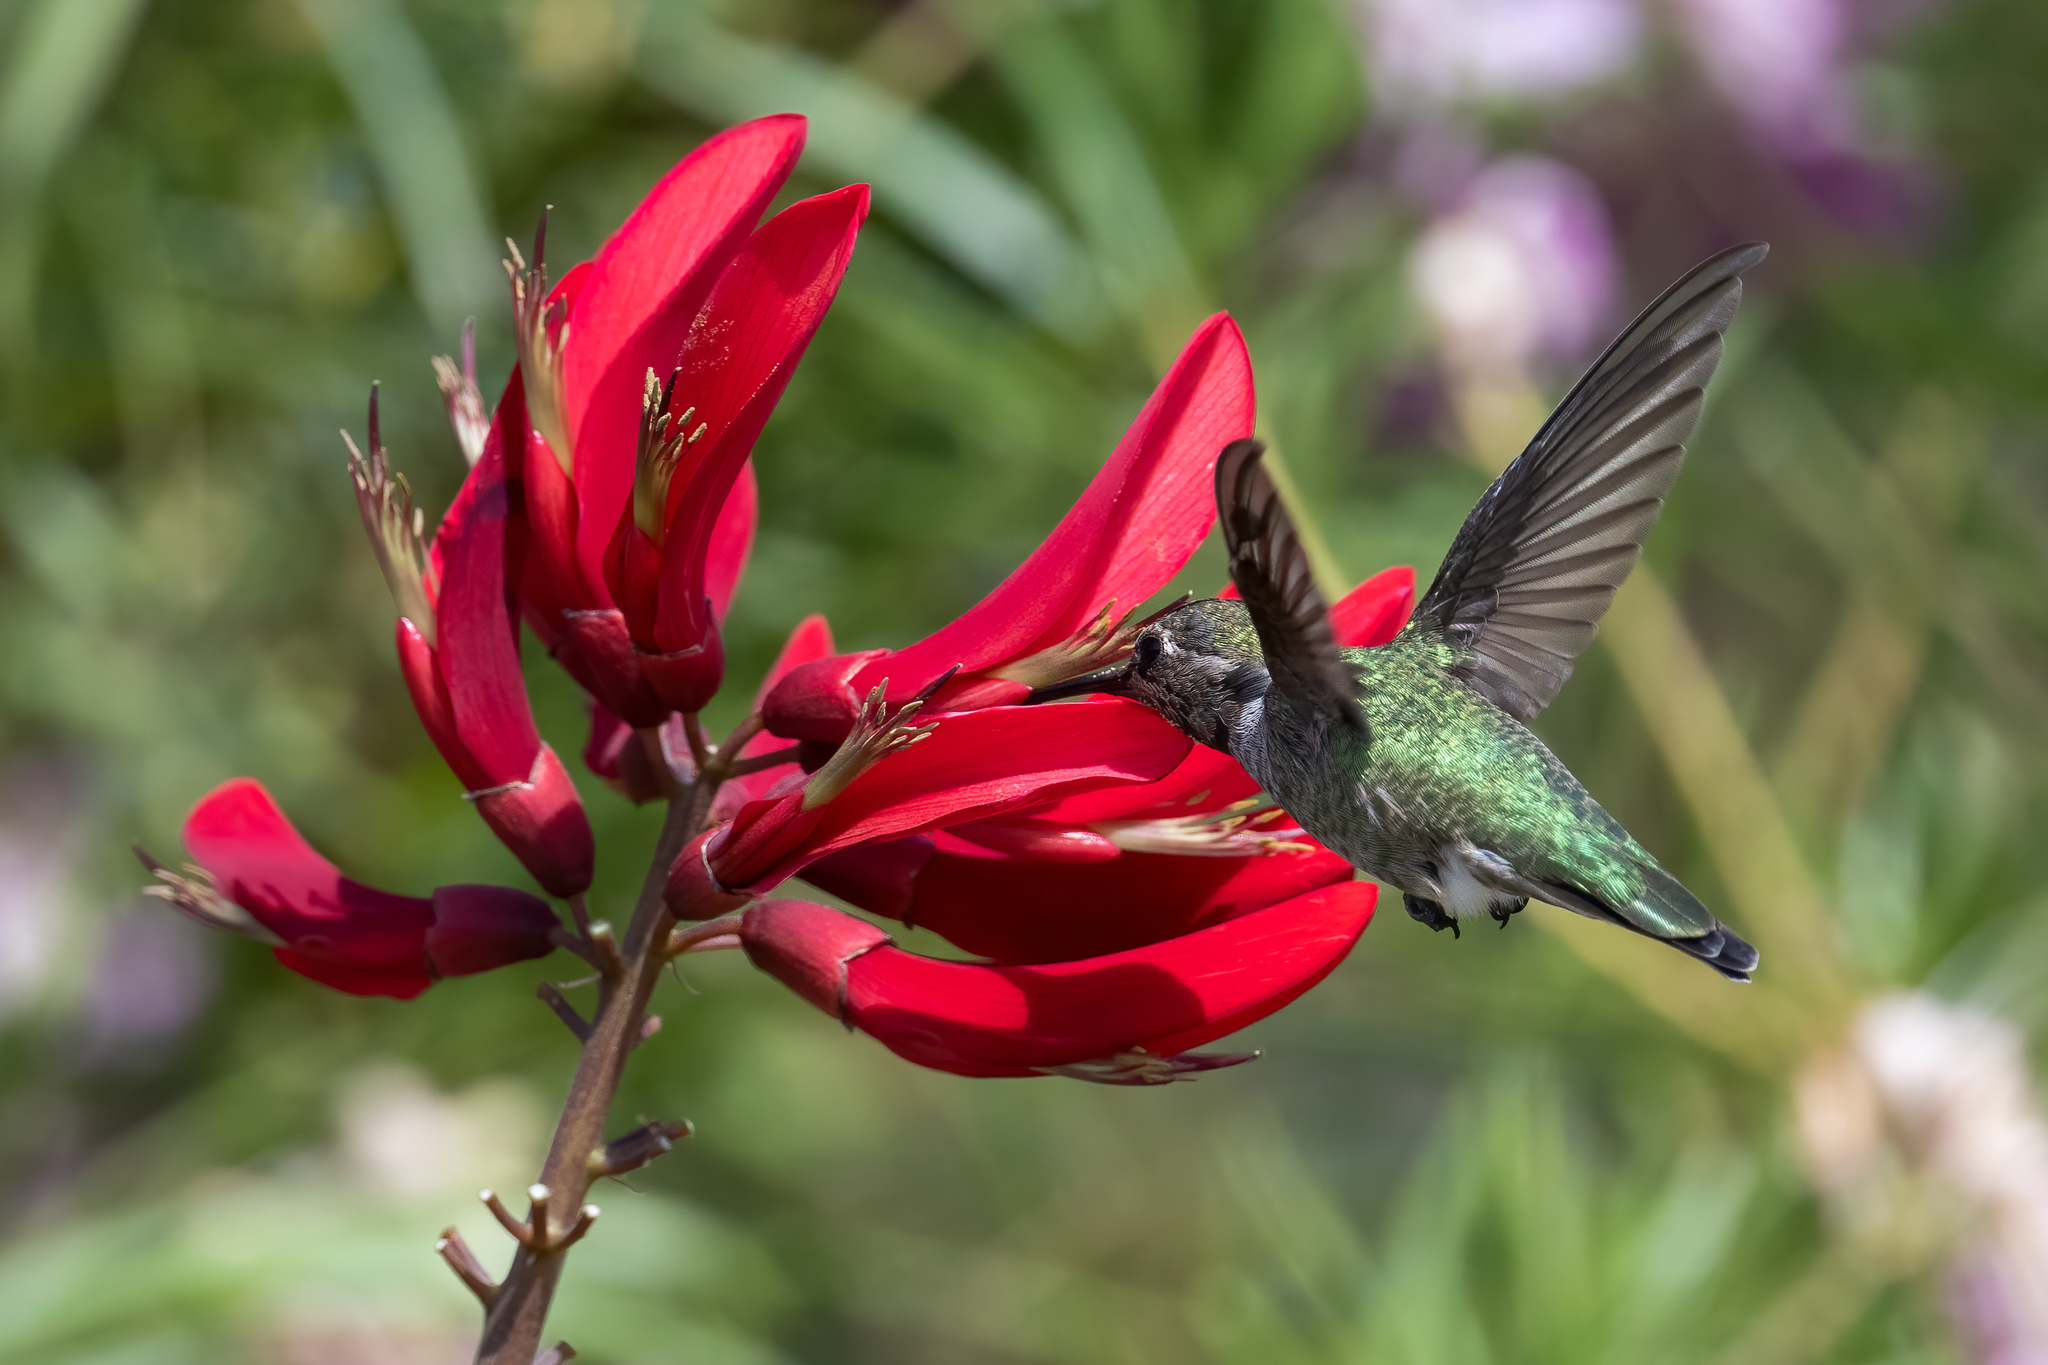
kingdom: Animalia
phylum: Chordata
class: Aves
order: Apodiformes
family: Trochilidae
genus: Calypte
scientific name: Calypte anna
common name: Anna's hummingbird
